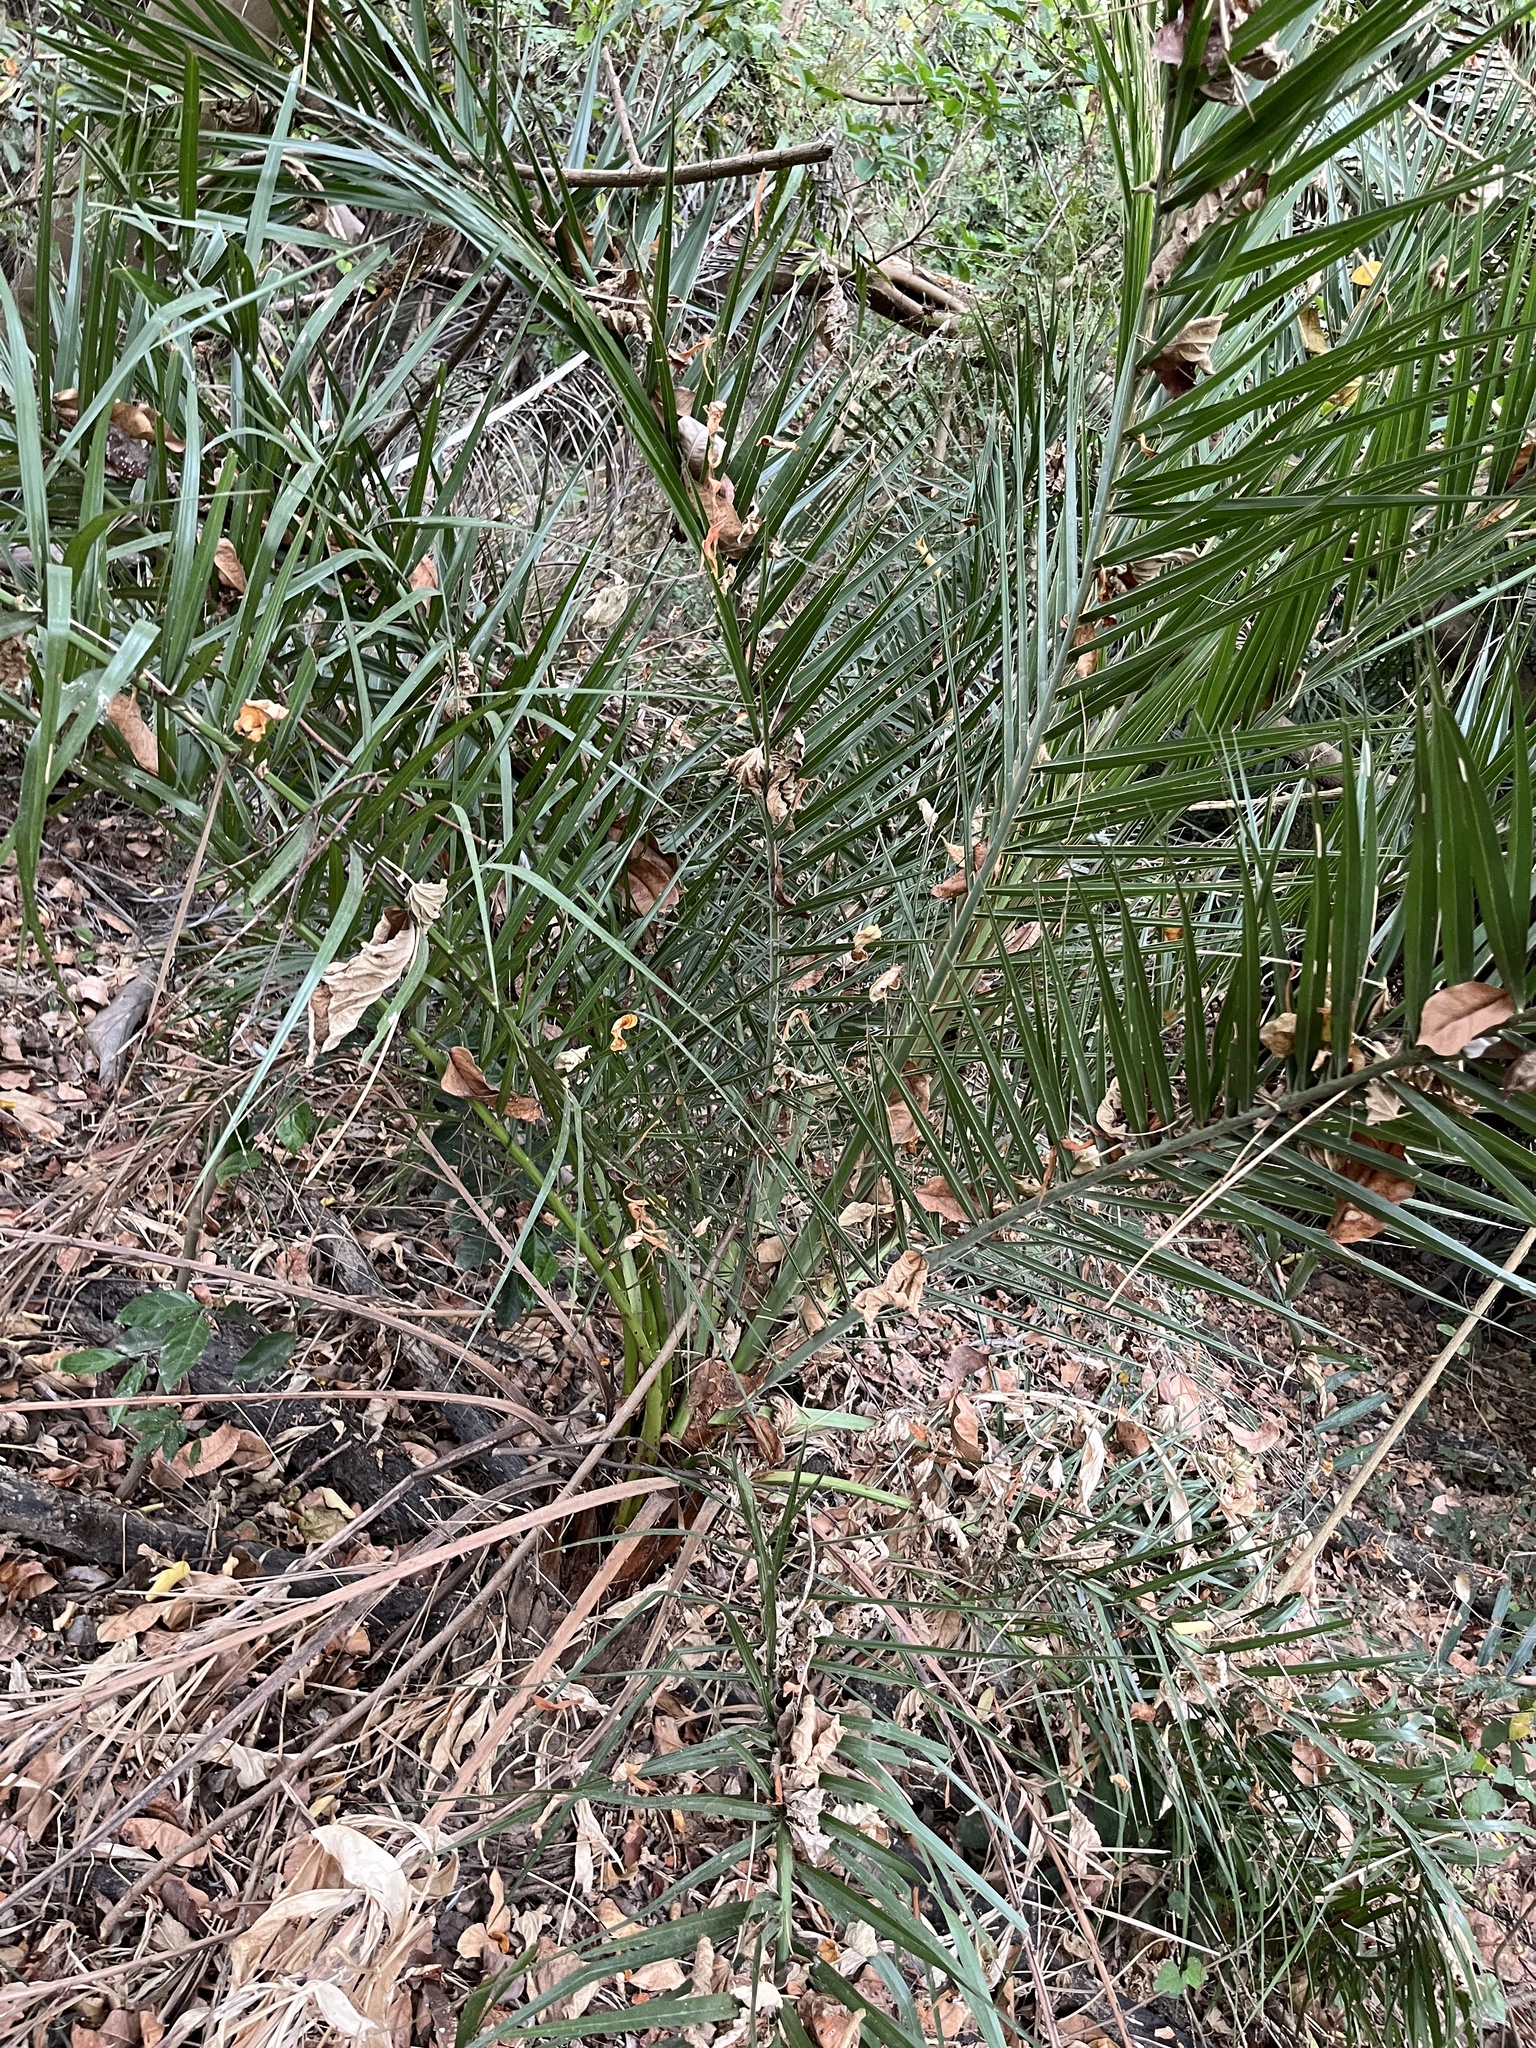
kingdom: Plantae
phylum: Tracheophyta
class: Liliopsida
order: Arecales
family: Arecaceae
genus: Phoenix
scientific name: Phoenix loureiroi
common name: Loureiro's palm
